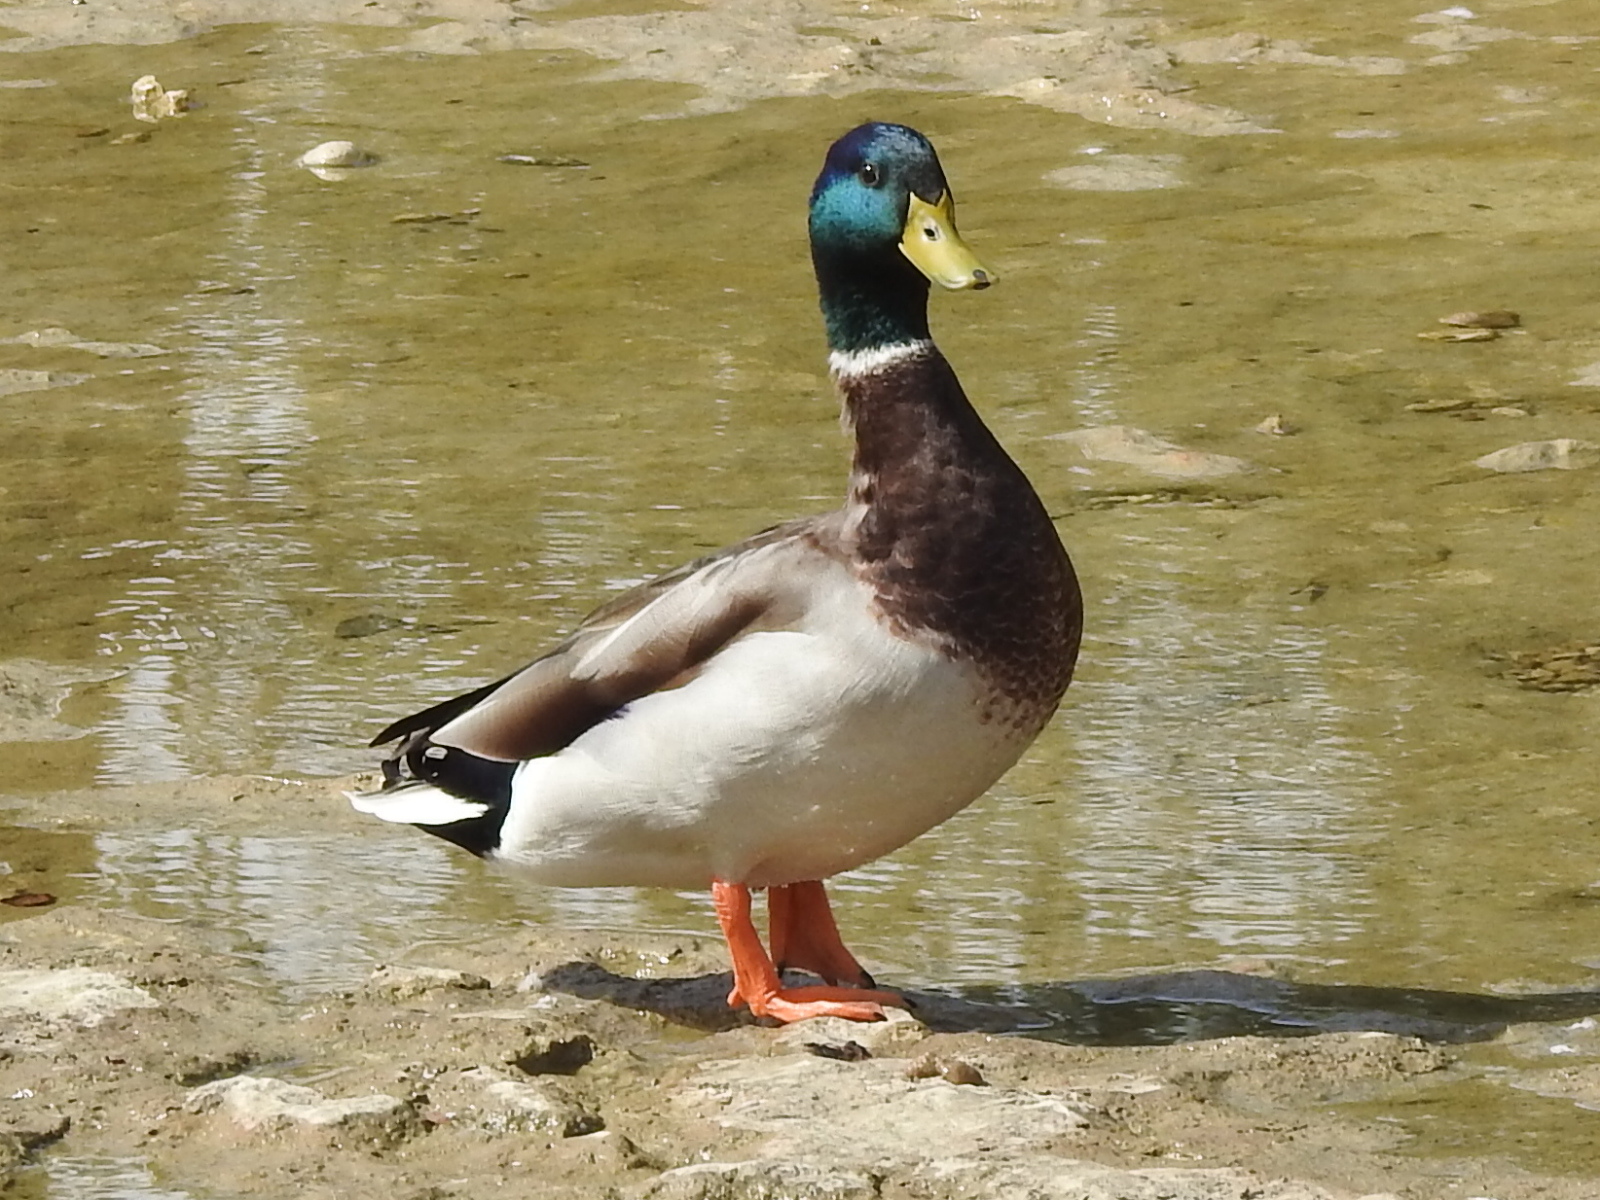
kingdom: Animalia
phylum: Chordata
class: Aves
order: Anseriformes
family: Anatidae
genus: Anas
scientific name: Anas platyrhynchos
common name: Mallard
